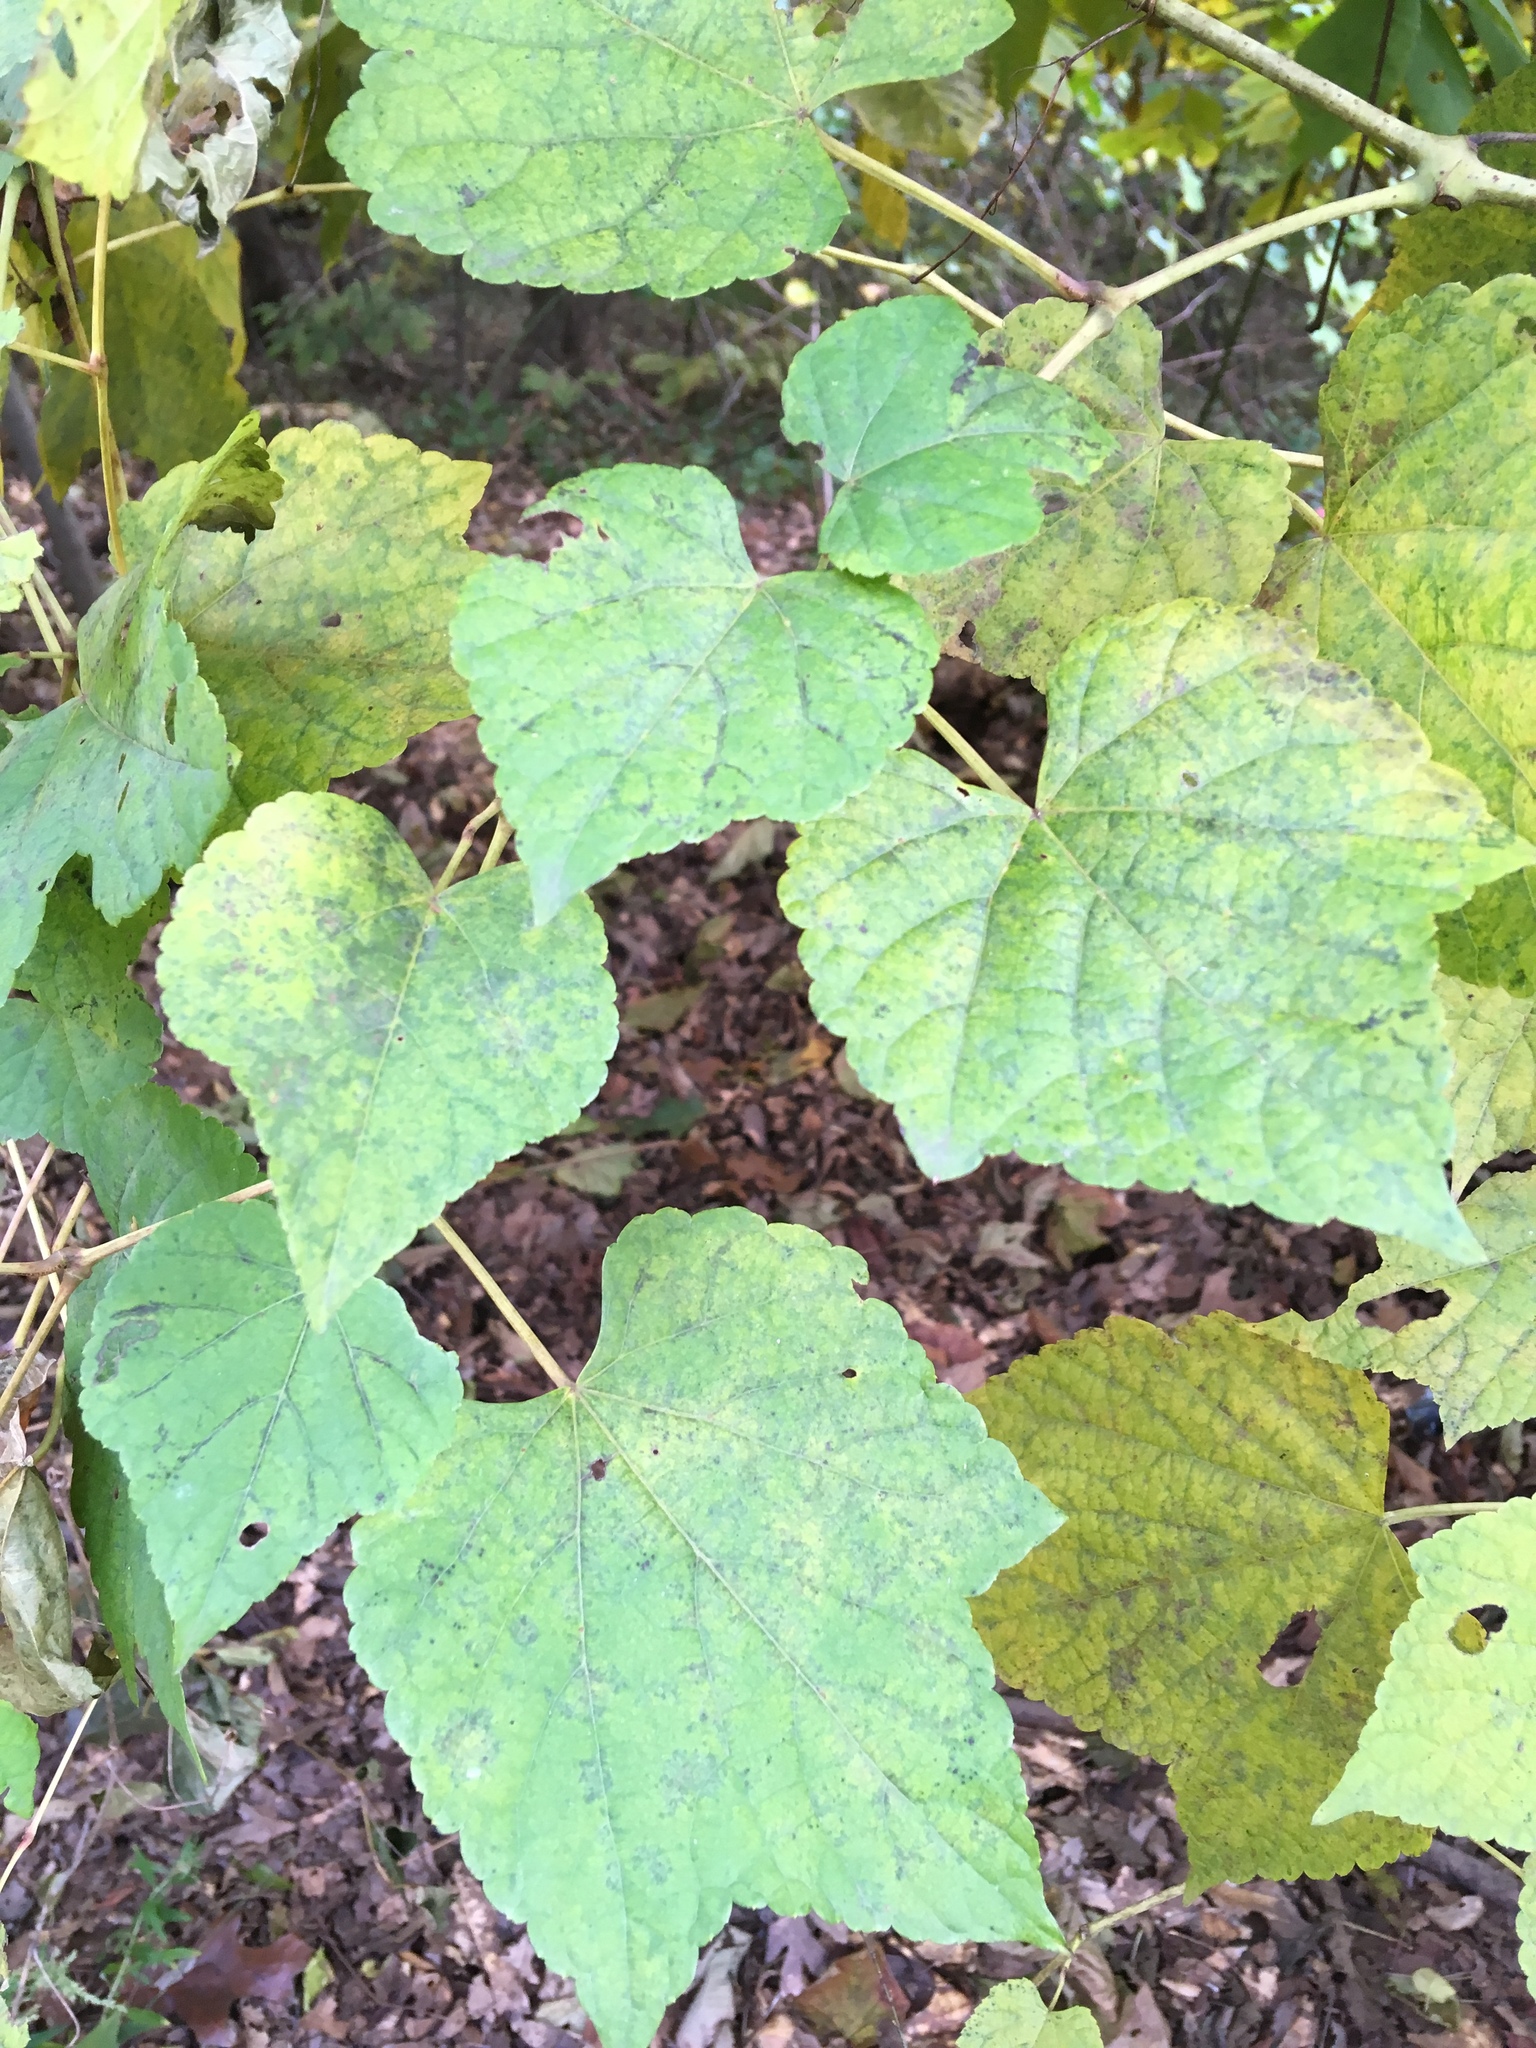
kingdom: Plantae
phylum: Tracheophyta
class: Magnoliopsida
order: Vitales
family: Vitaceae
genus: Ampelopsis
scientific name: Ampelopsis glandulosa
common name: Amur peppervine
